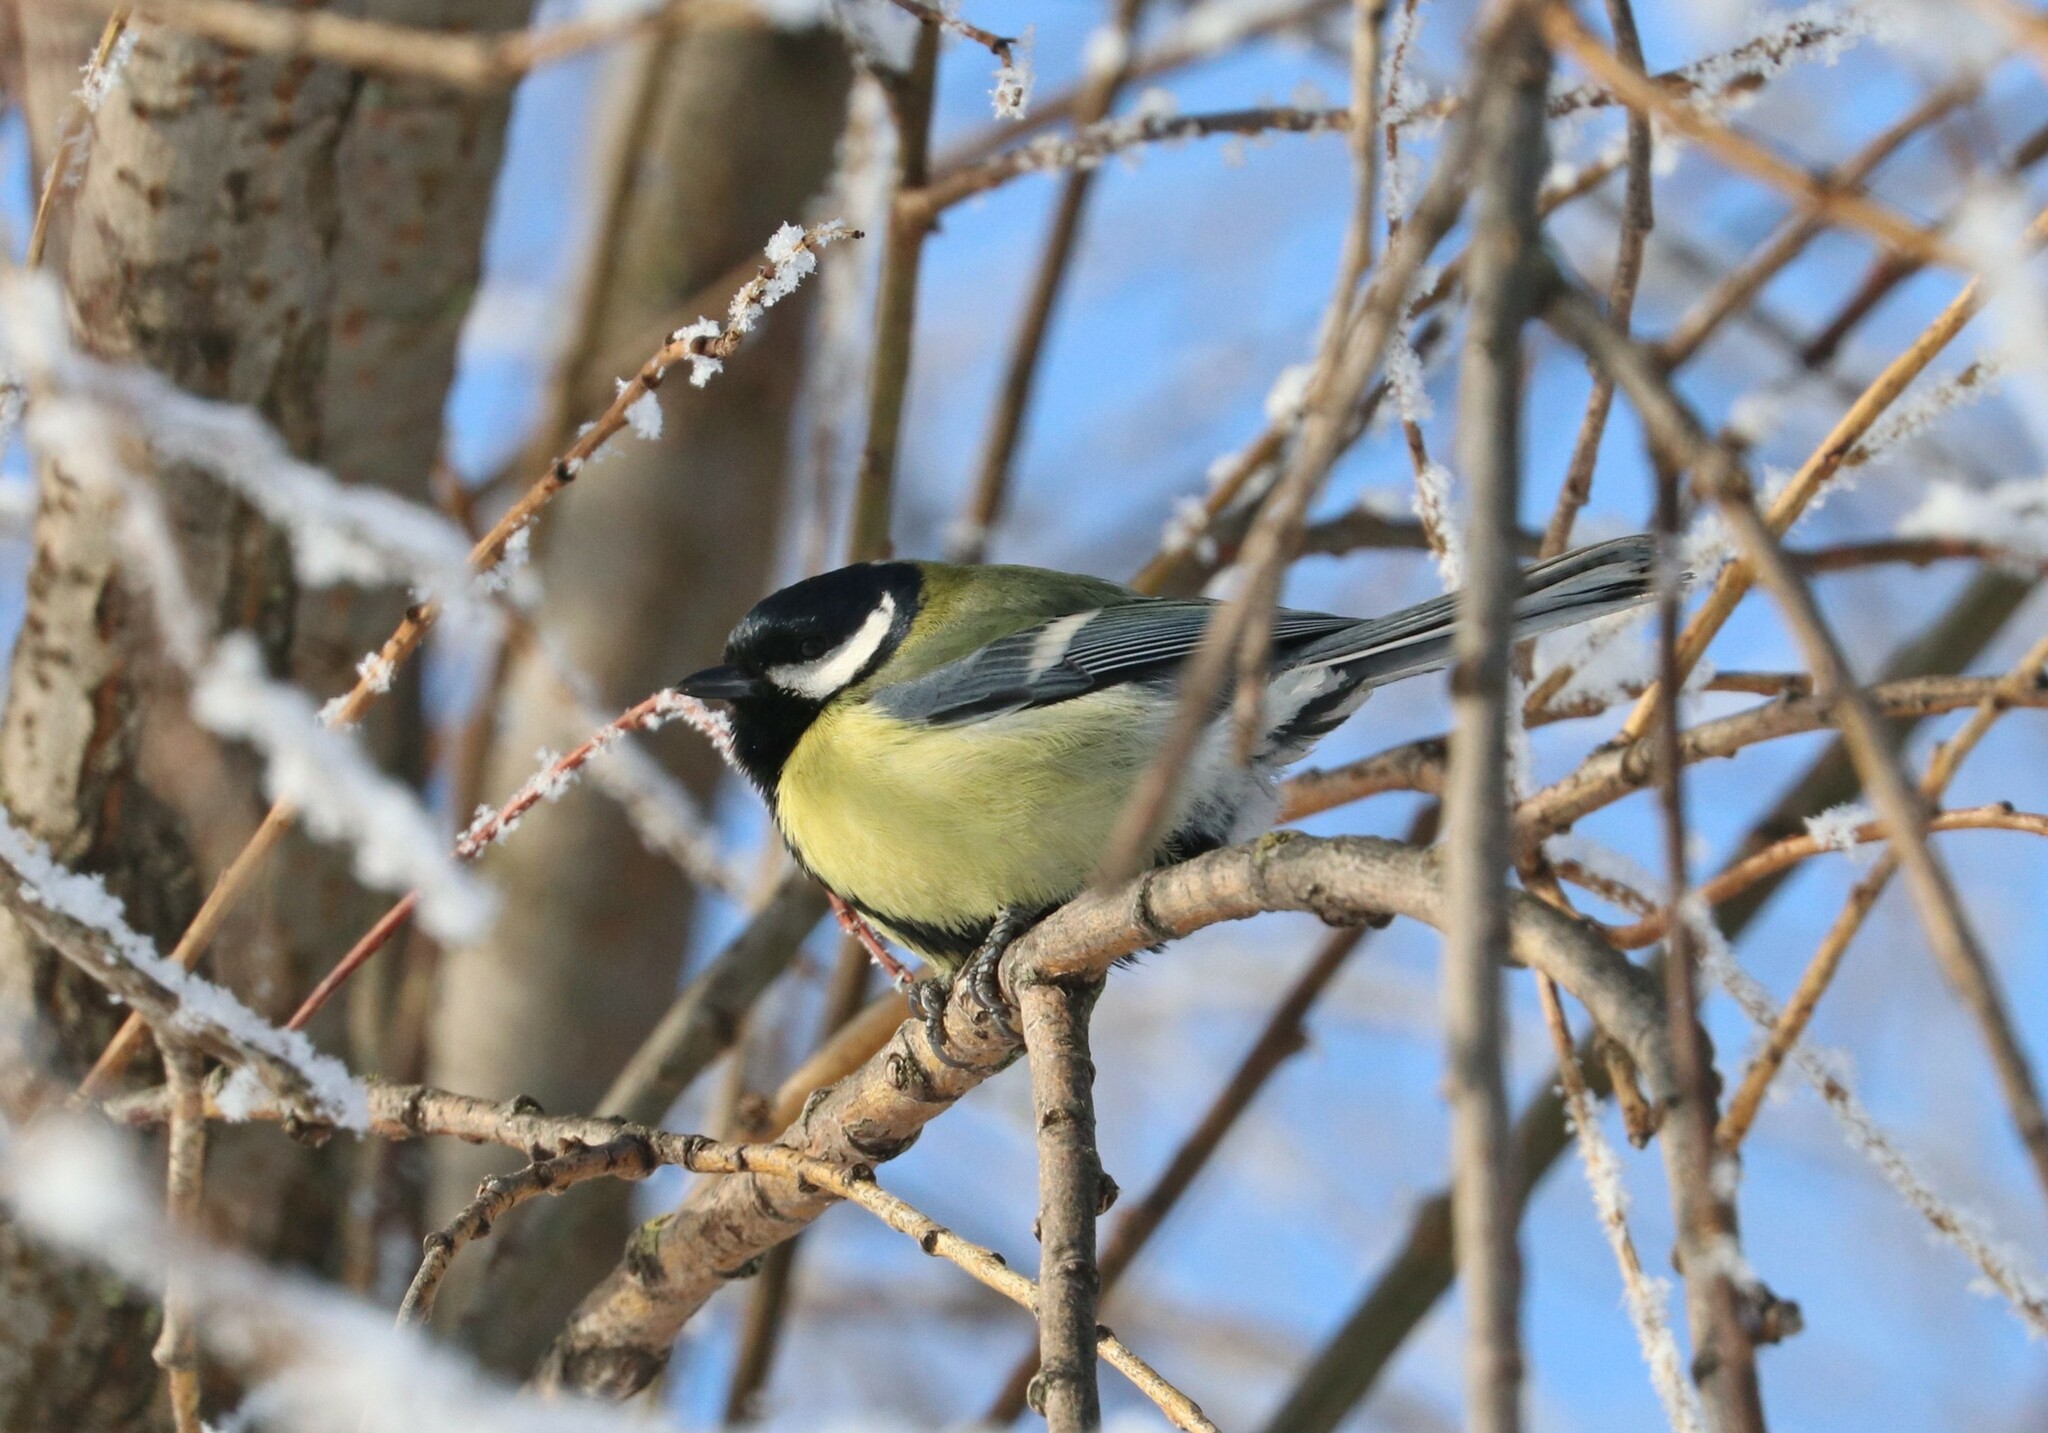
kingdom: Animalia
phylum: Chordata
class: Aves
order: Passeriformes
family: Paridae
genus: Parus
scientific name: Parus major
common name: Great tit
